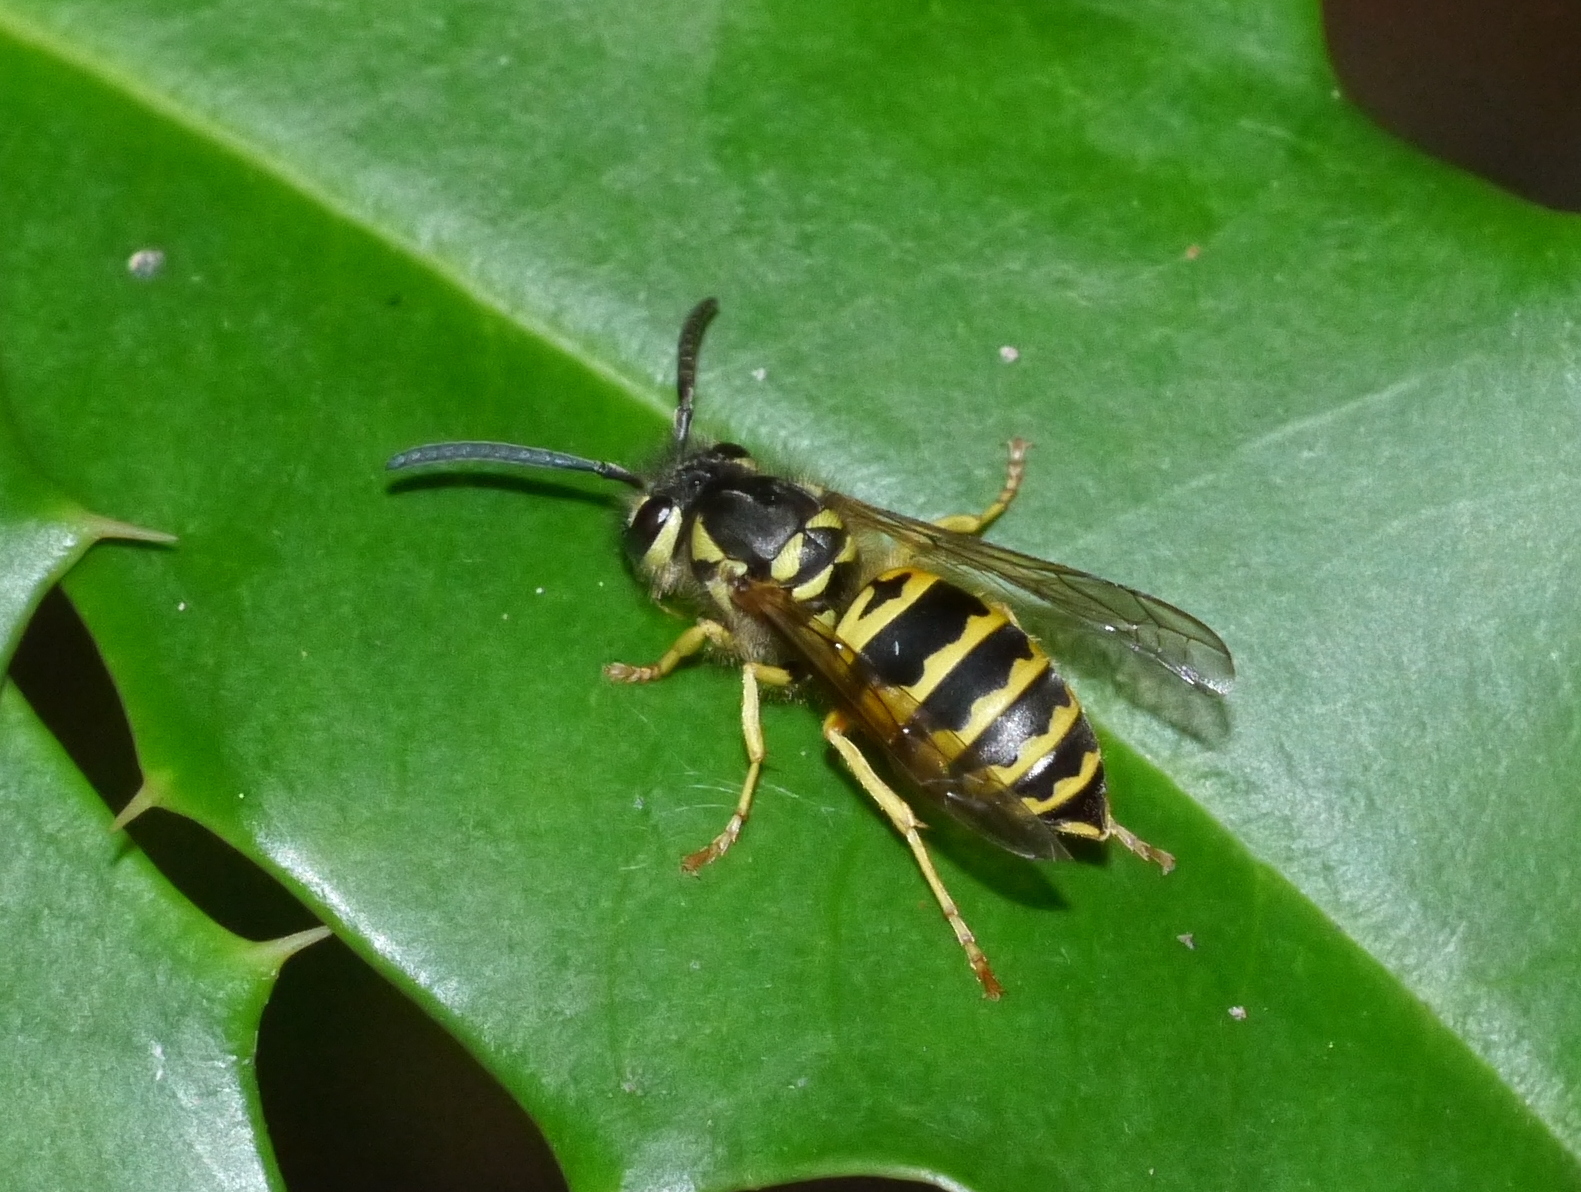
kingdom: Animalia
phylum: Arthropoda
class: Insecta
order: Hymenoptera
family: Vespidae
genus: Vespula
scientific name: Vespula maculifrons
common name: Eastern yellowjacket
